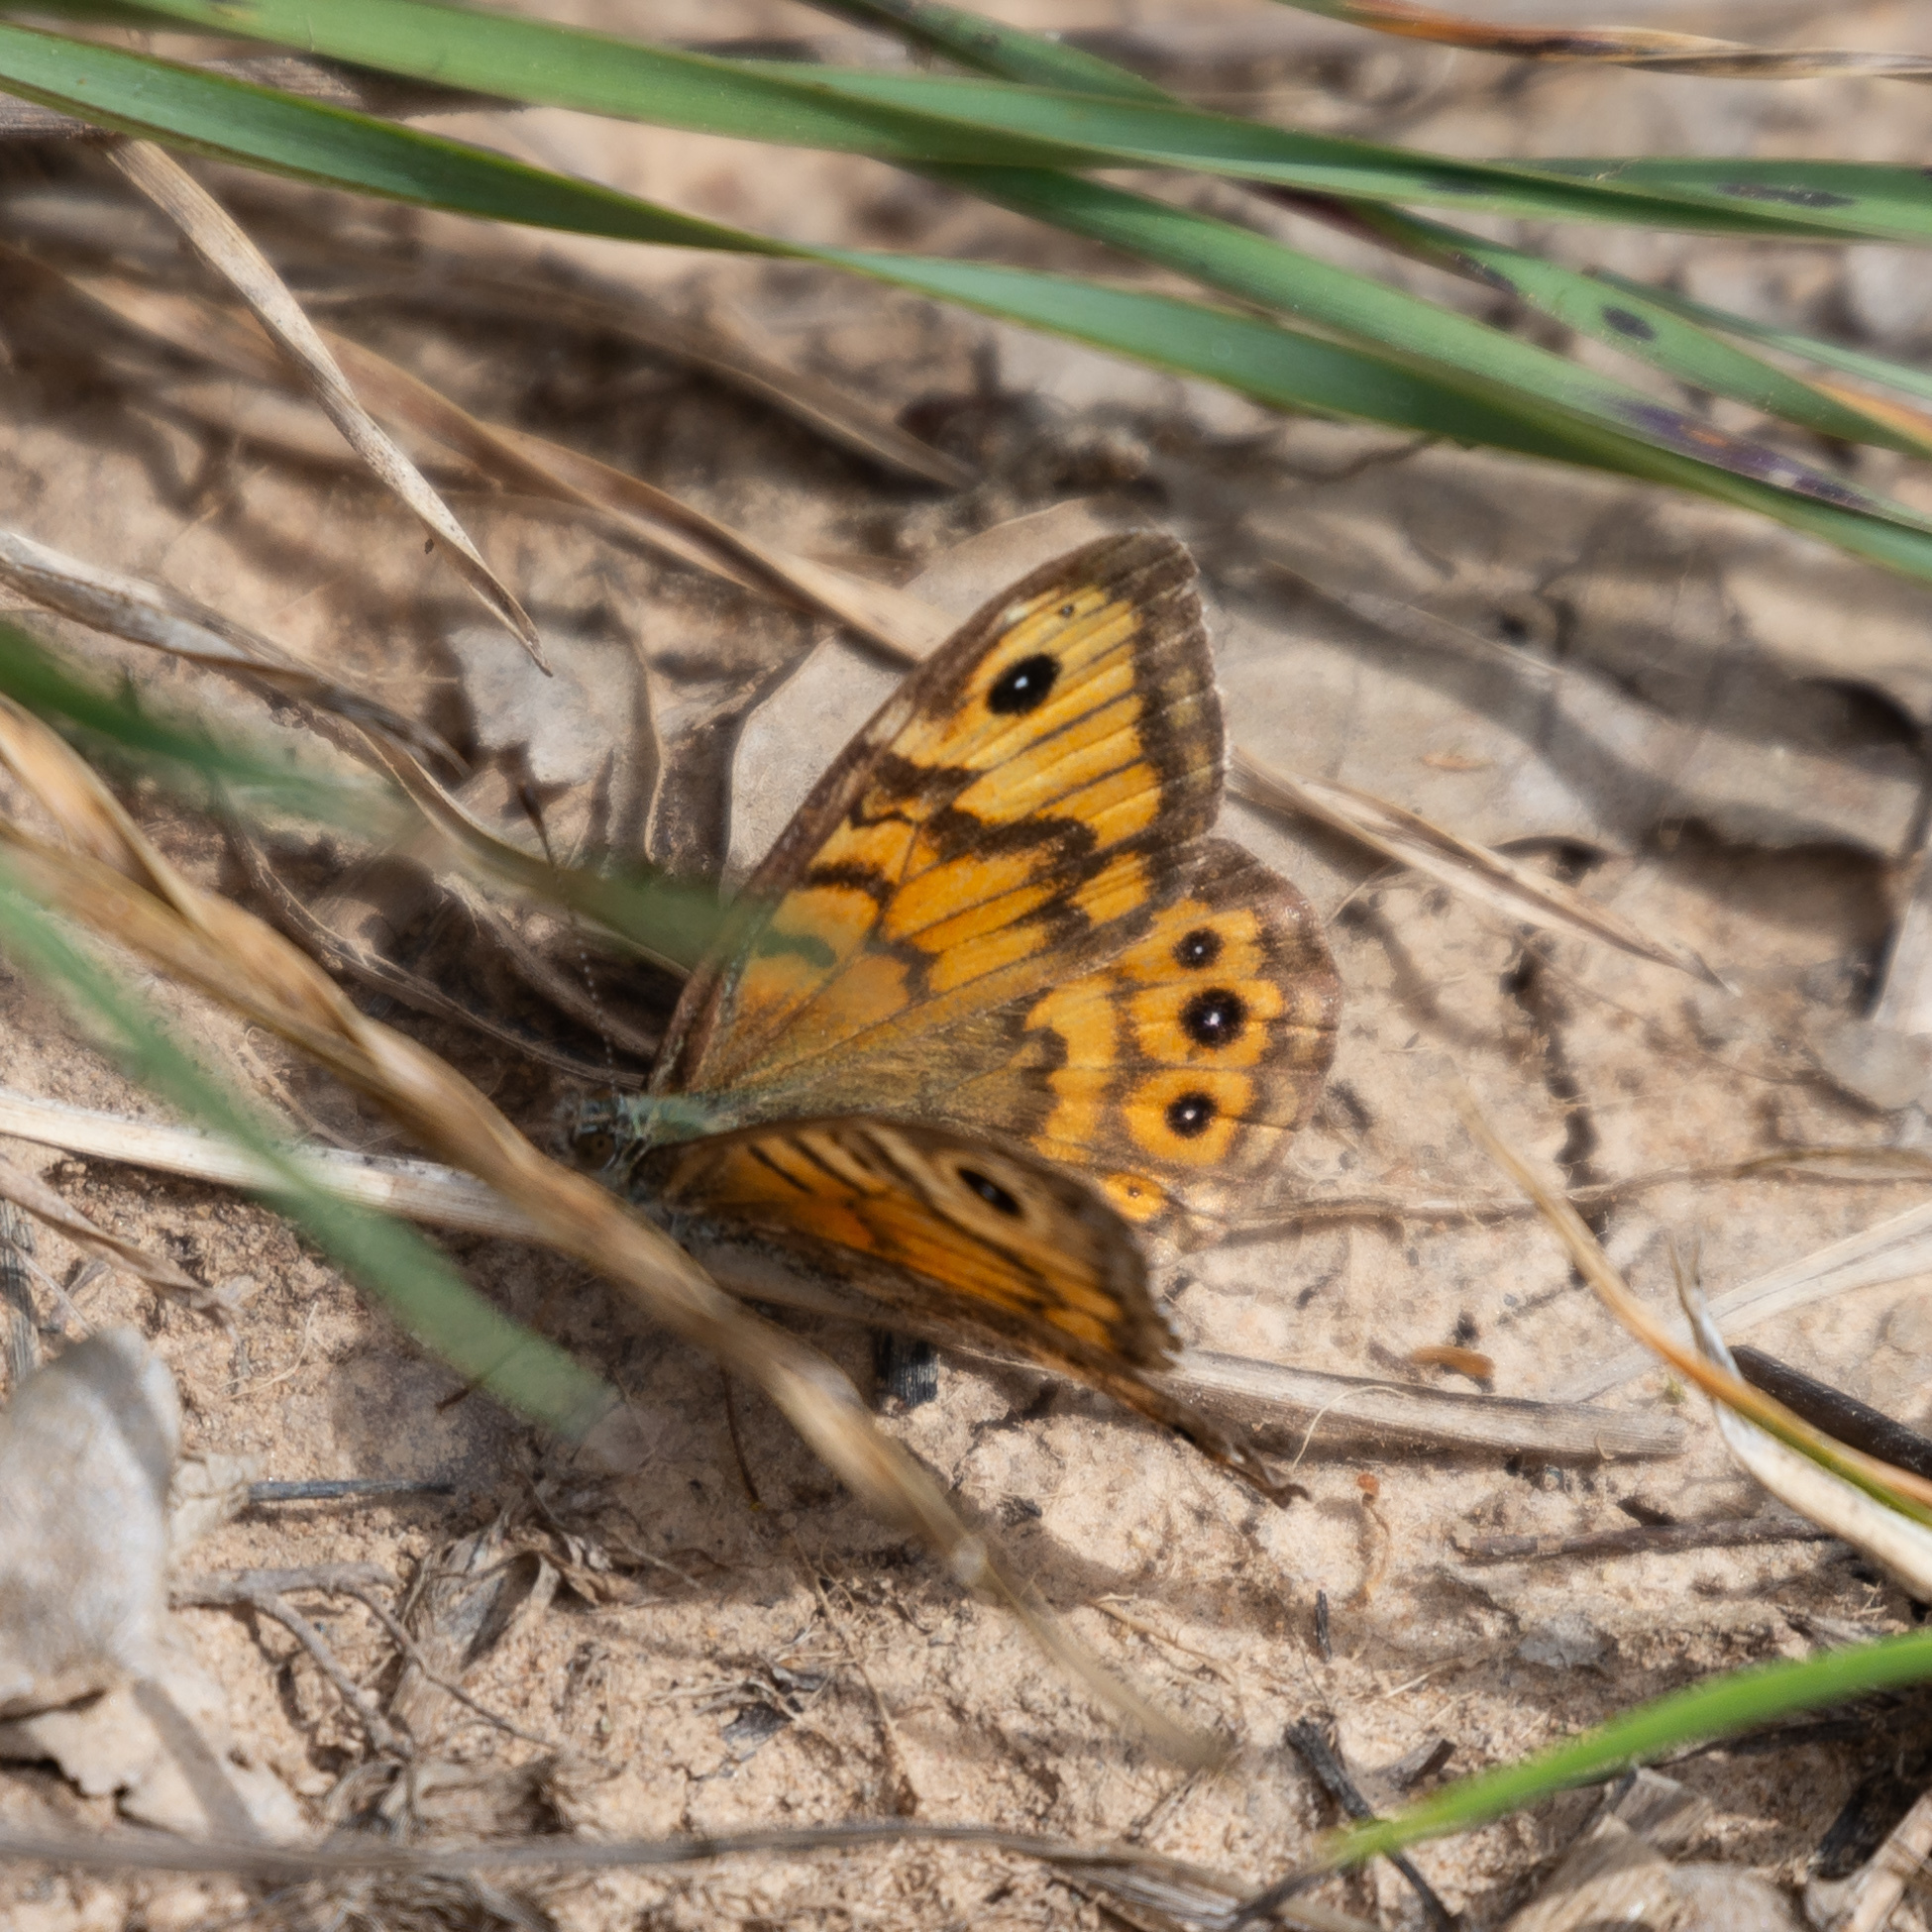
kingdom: Animalia
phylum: Arthropoda
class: Insecta
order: Lepidoptera
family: Nymphalidae
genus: Pararge
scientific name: Pararge Lasiommata megera
